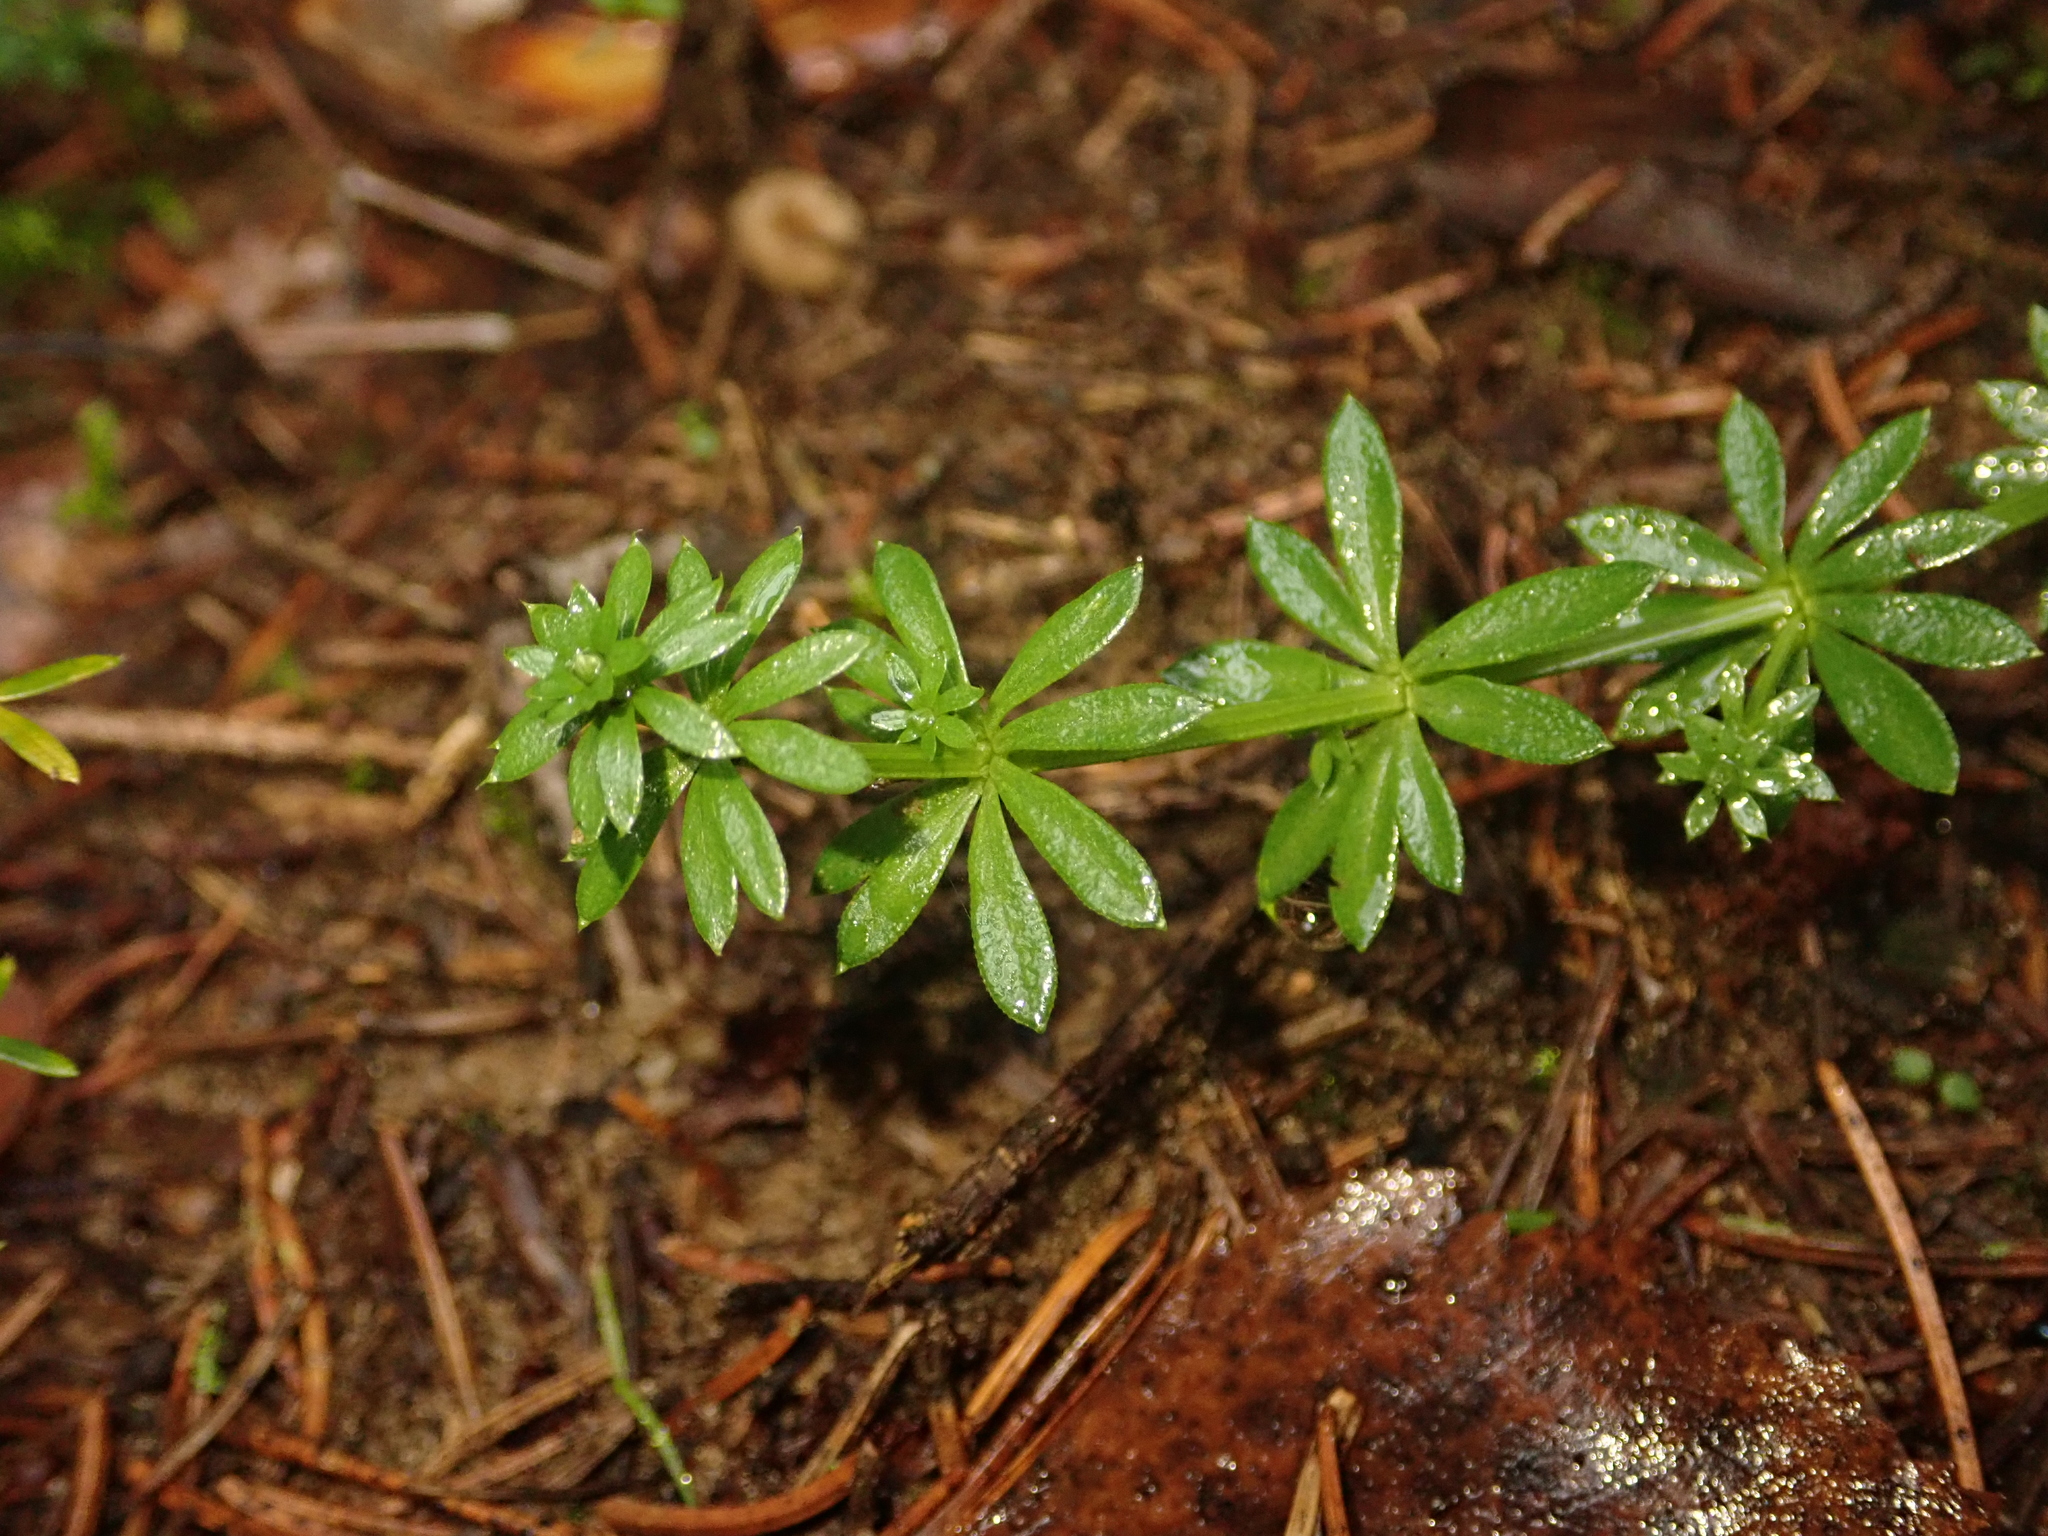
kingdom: Plantae
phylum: Tracheophyta
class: Magnoliopsida
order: Gentianales
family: Rubiaceae
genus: Galium
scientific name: Galium odoratum
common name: Sweet woodruff
